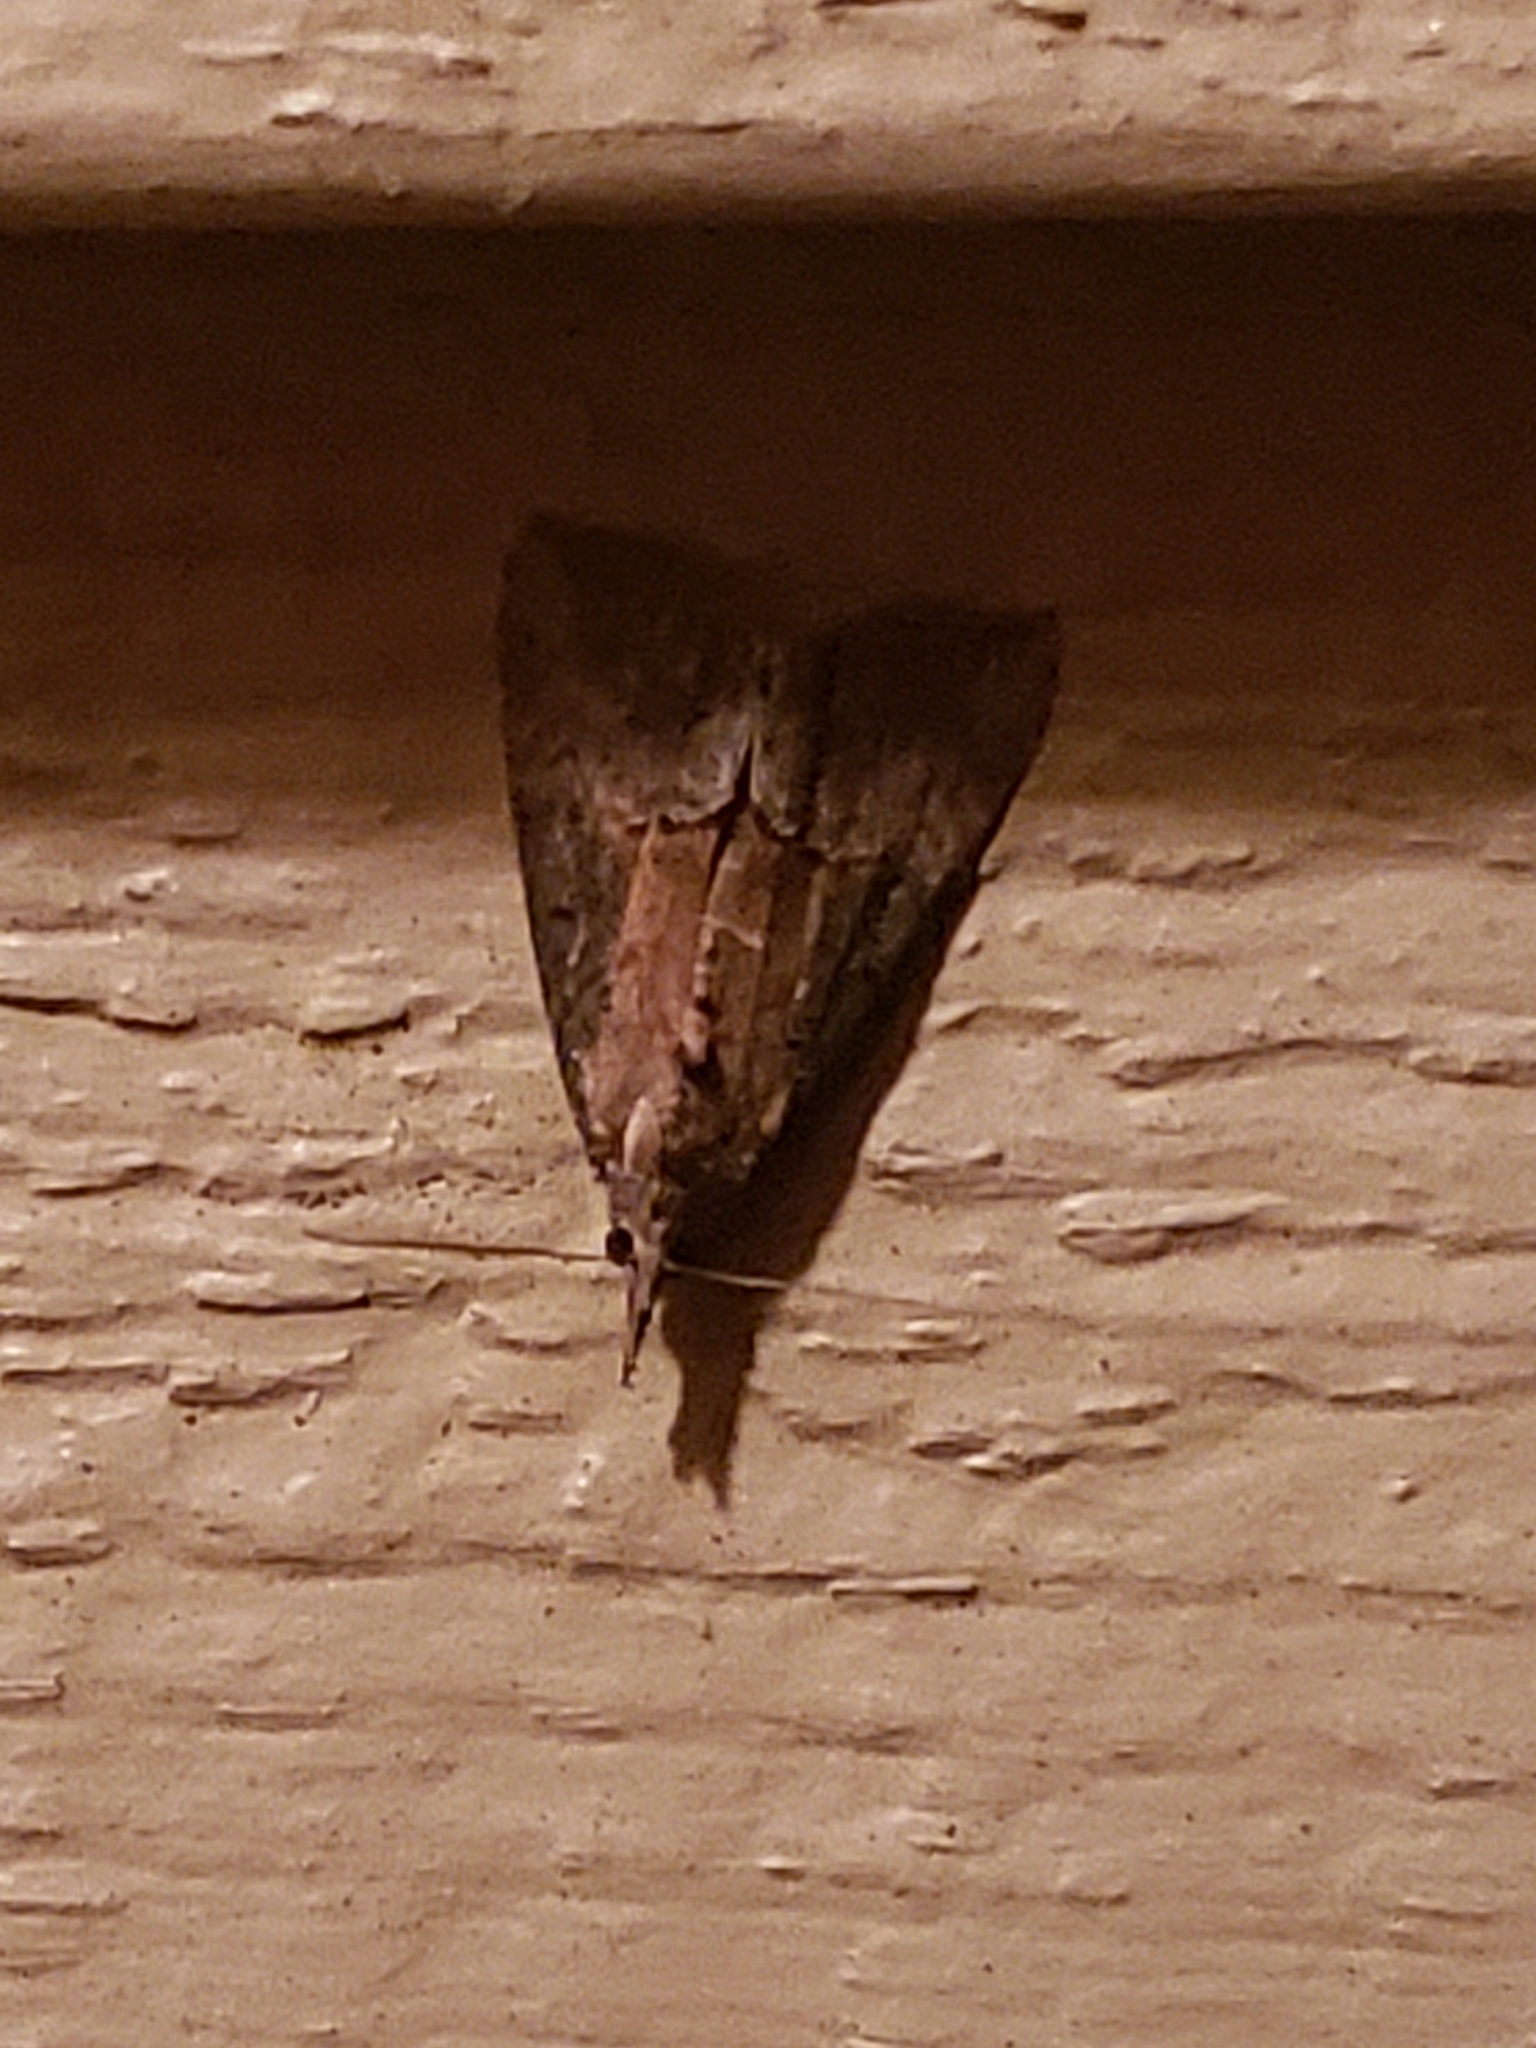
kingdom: Animalia
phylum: Arthropoda
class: Insecta
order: Lepidoptera
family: Erebidae
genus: Hypena
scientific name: Hypena scabra
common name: Green cloverworm
